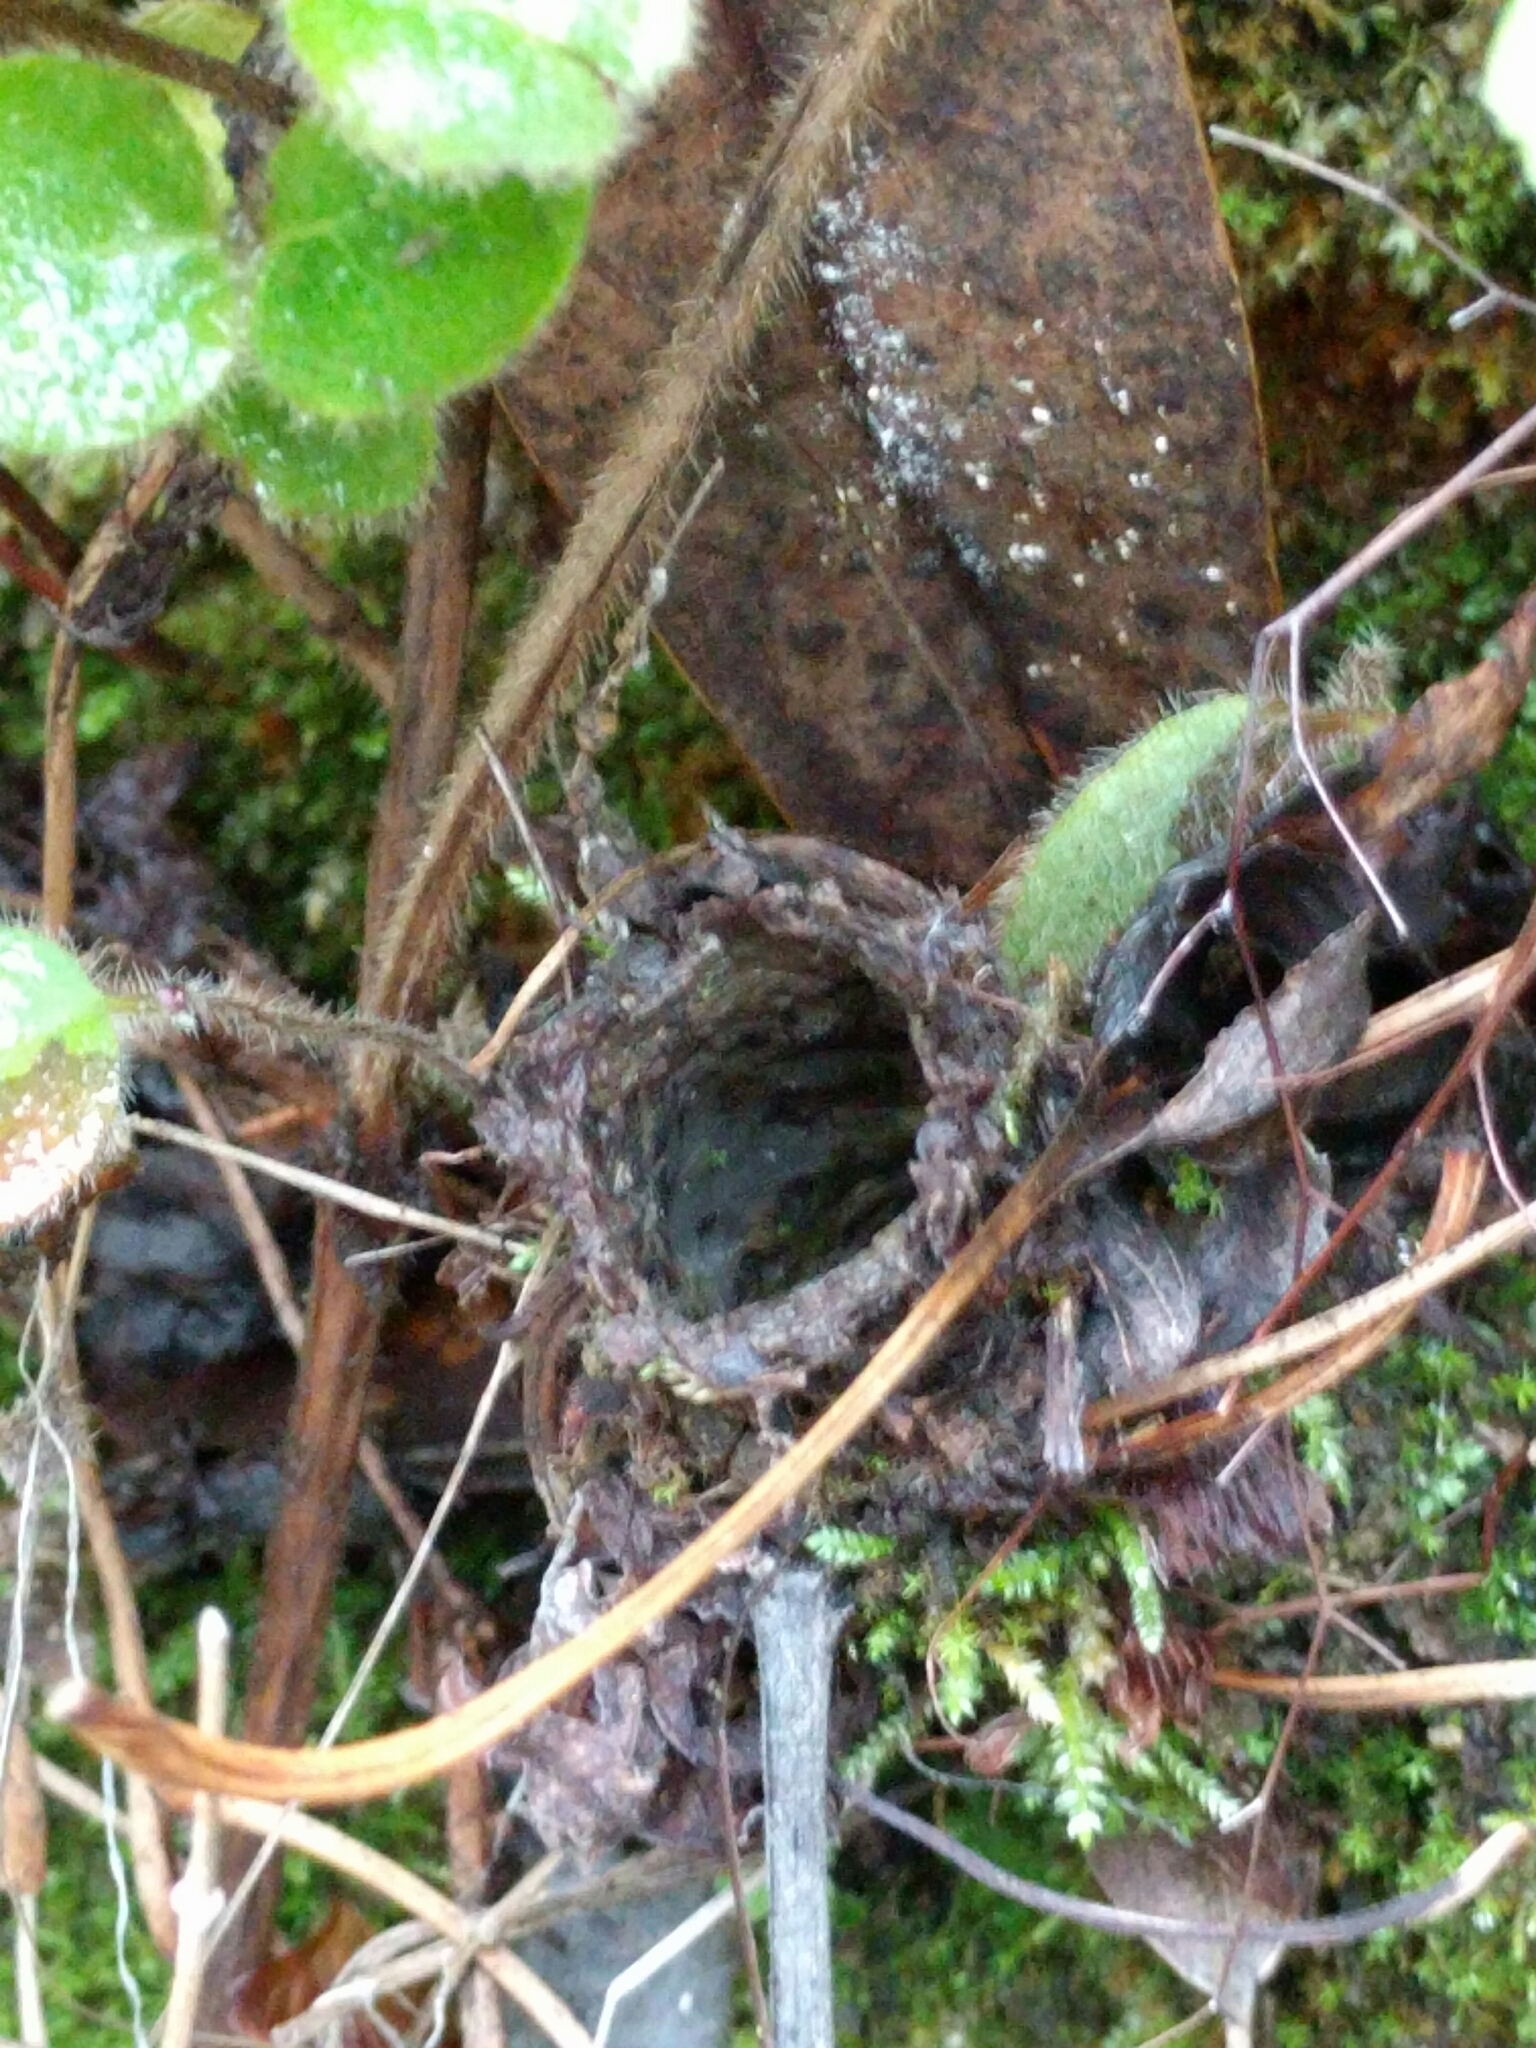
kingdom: Animalia
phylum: Arthropoda
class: Arachnida
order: Araneae
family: Antrodiaetidae
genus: Atypoides
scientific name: Atypoides riversi
